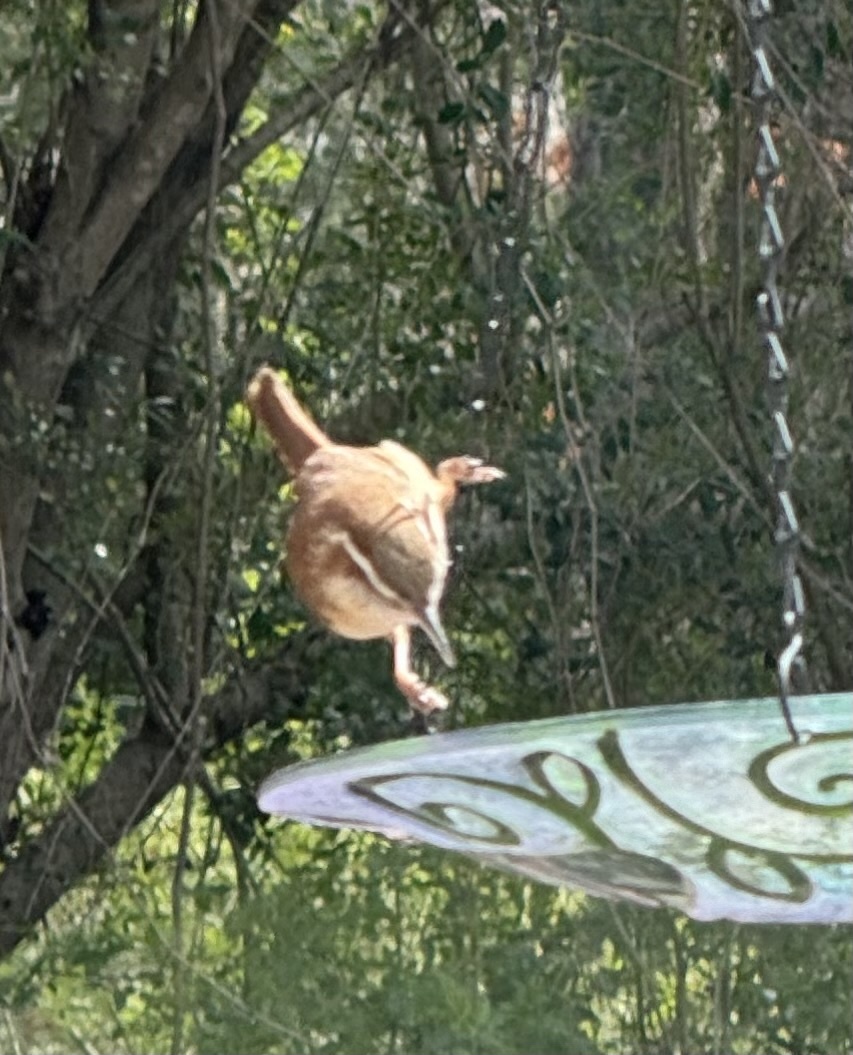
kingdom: Animalia
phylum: Chordata
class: Aves
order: Passeriformes
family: Troglodytidae
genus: Thryothorus
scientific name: Thryothorus ludovicianus
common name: Carolina wren
